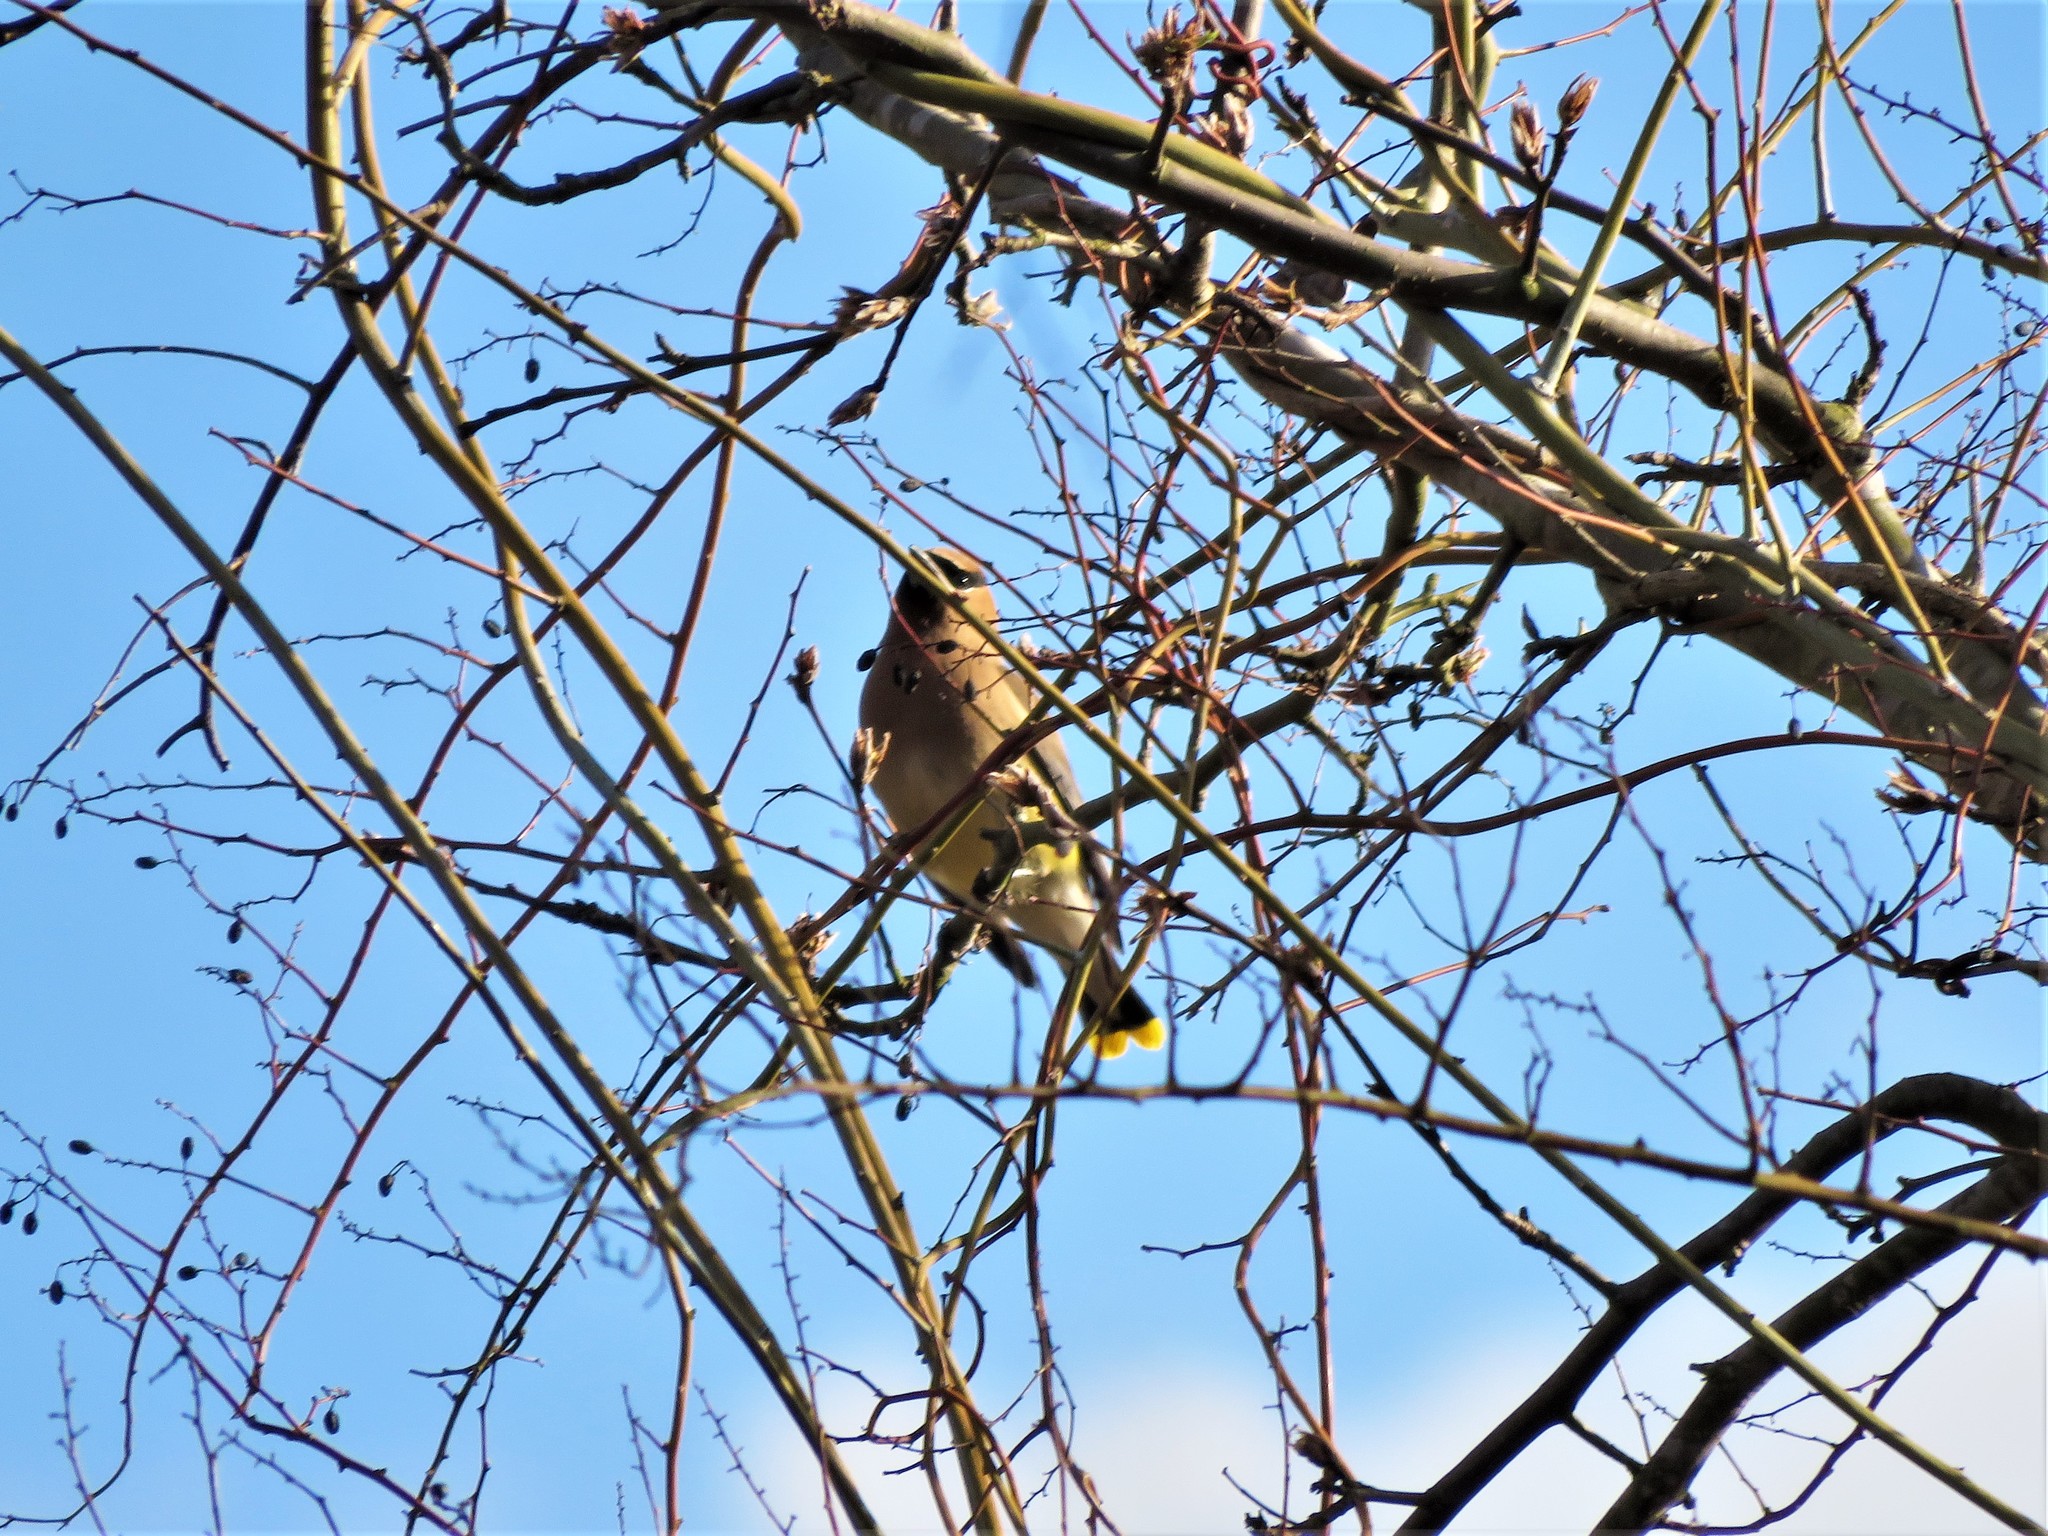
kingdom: Animalia
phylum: Chordata
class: Aves
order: Passeriformes
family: Bombycillidae
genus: Bombycilla
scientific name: Bombycilla cedrorum
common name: Cedar waxwing
